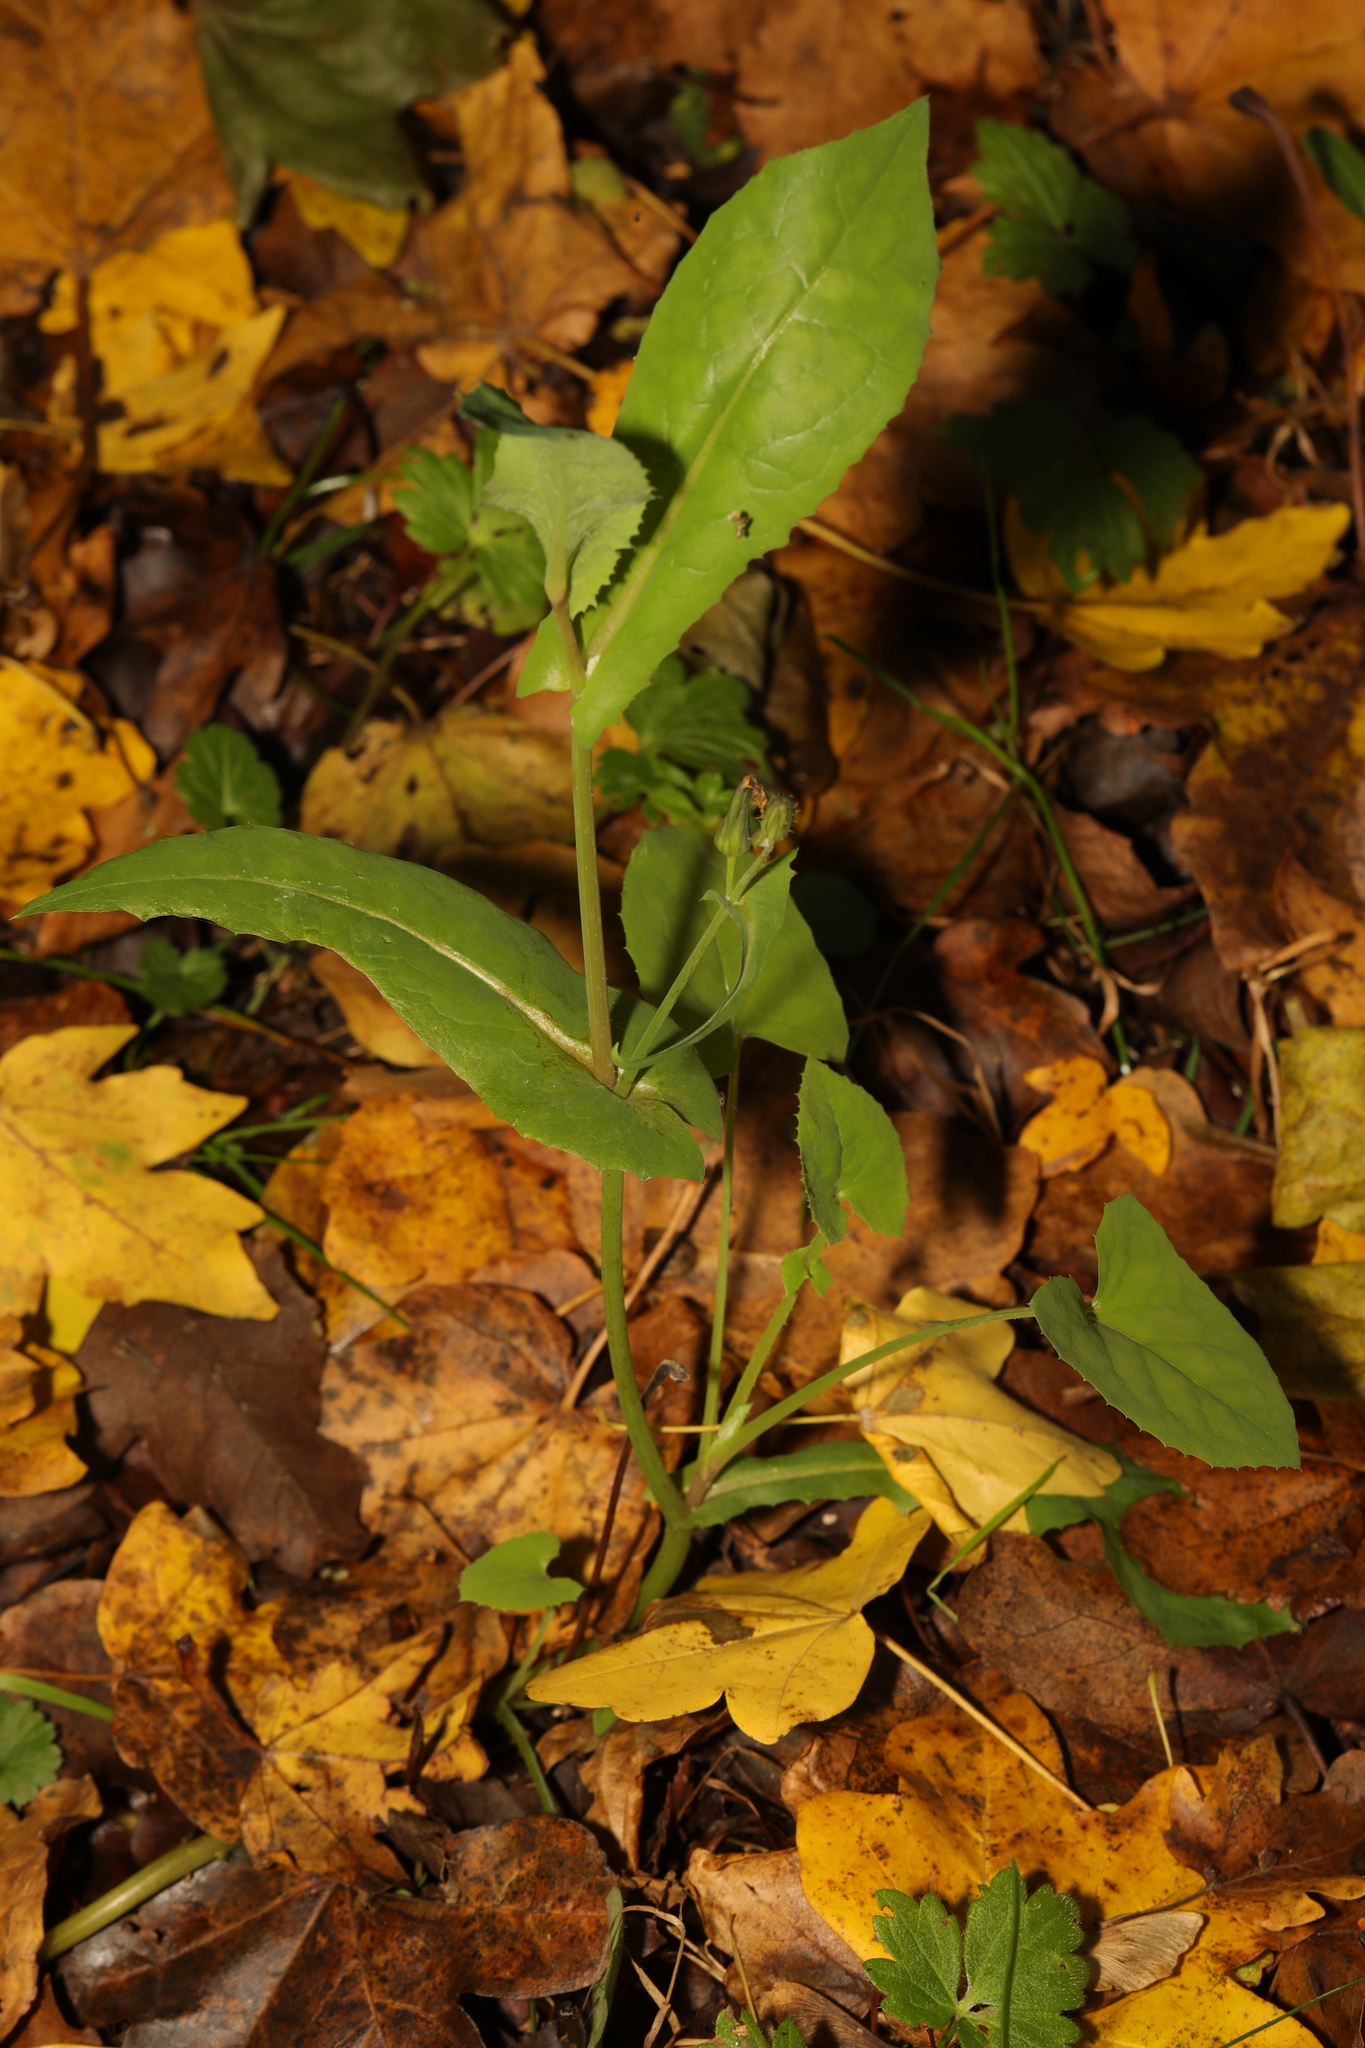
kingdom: Plantae
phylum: Tracheophyta
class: Magnoliopsida
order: Asterales
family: Asteraceae
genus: Sonchus
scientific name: Sonchus oleraceus
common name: Common sowthistle
